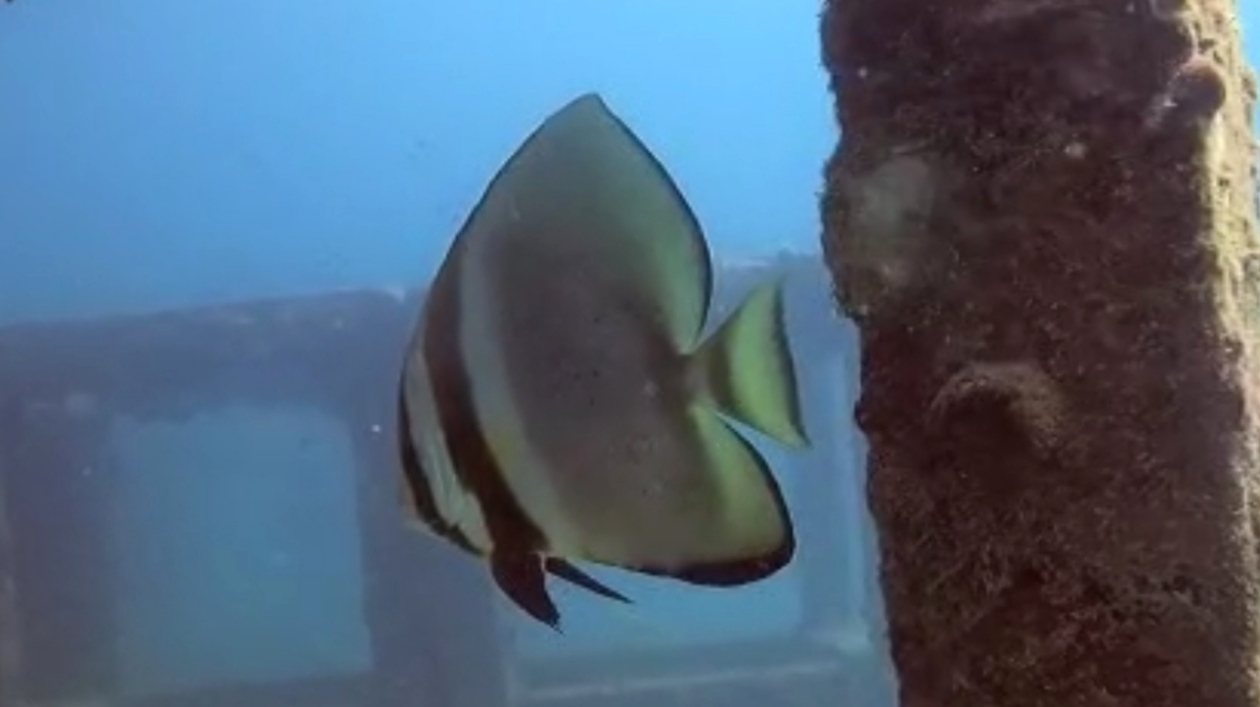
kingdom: Animalia
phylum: Chordata
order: Perciformes
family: Ephippidae
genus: Platax
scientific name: Platax orbicularis
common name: Batfish
